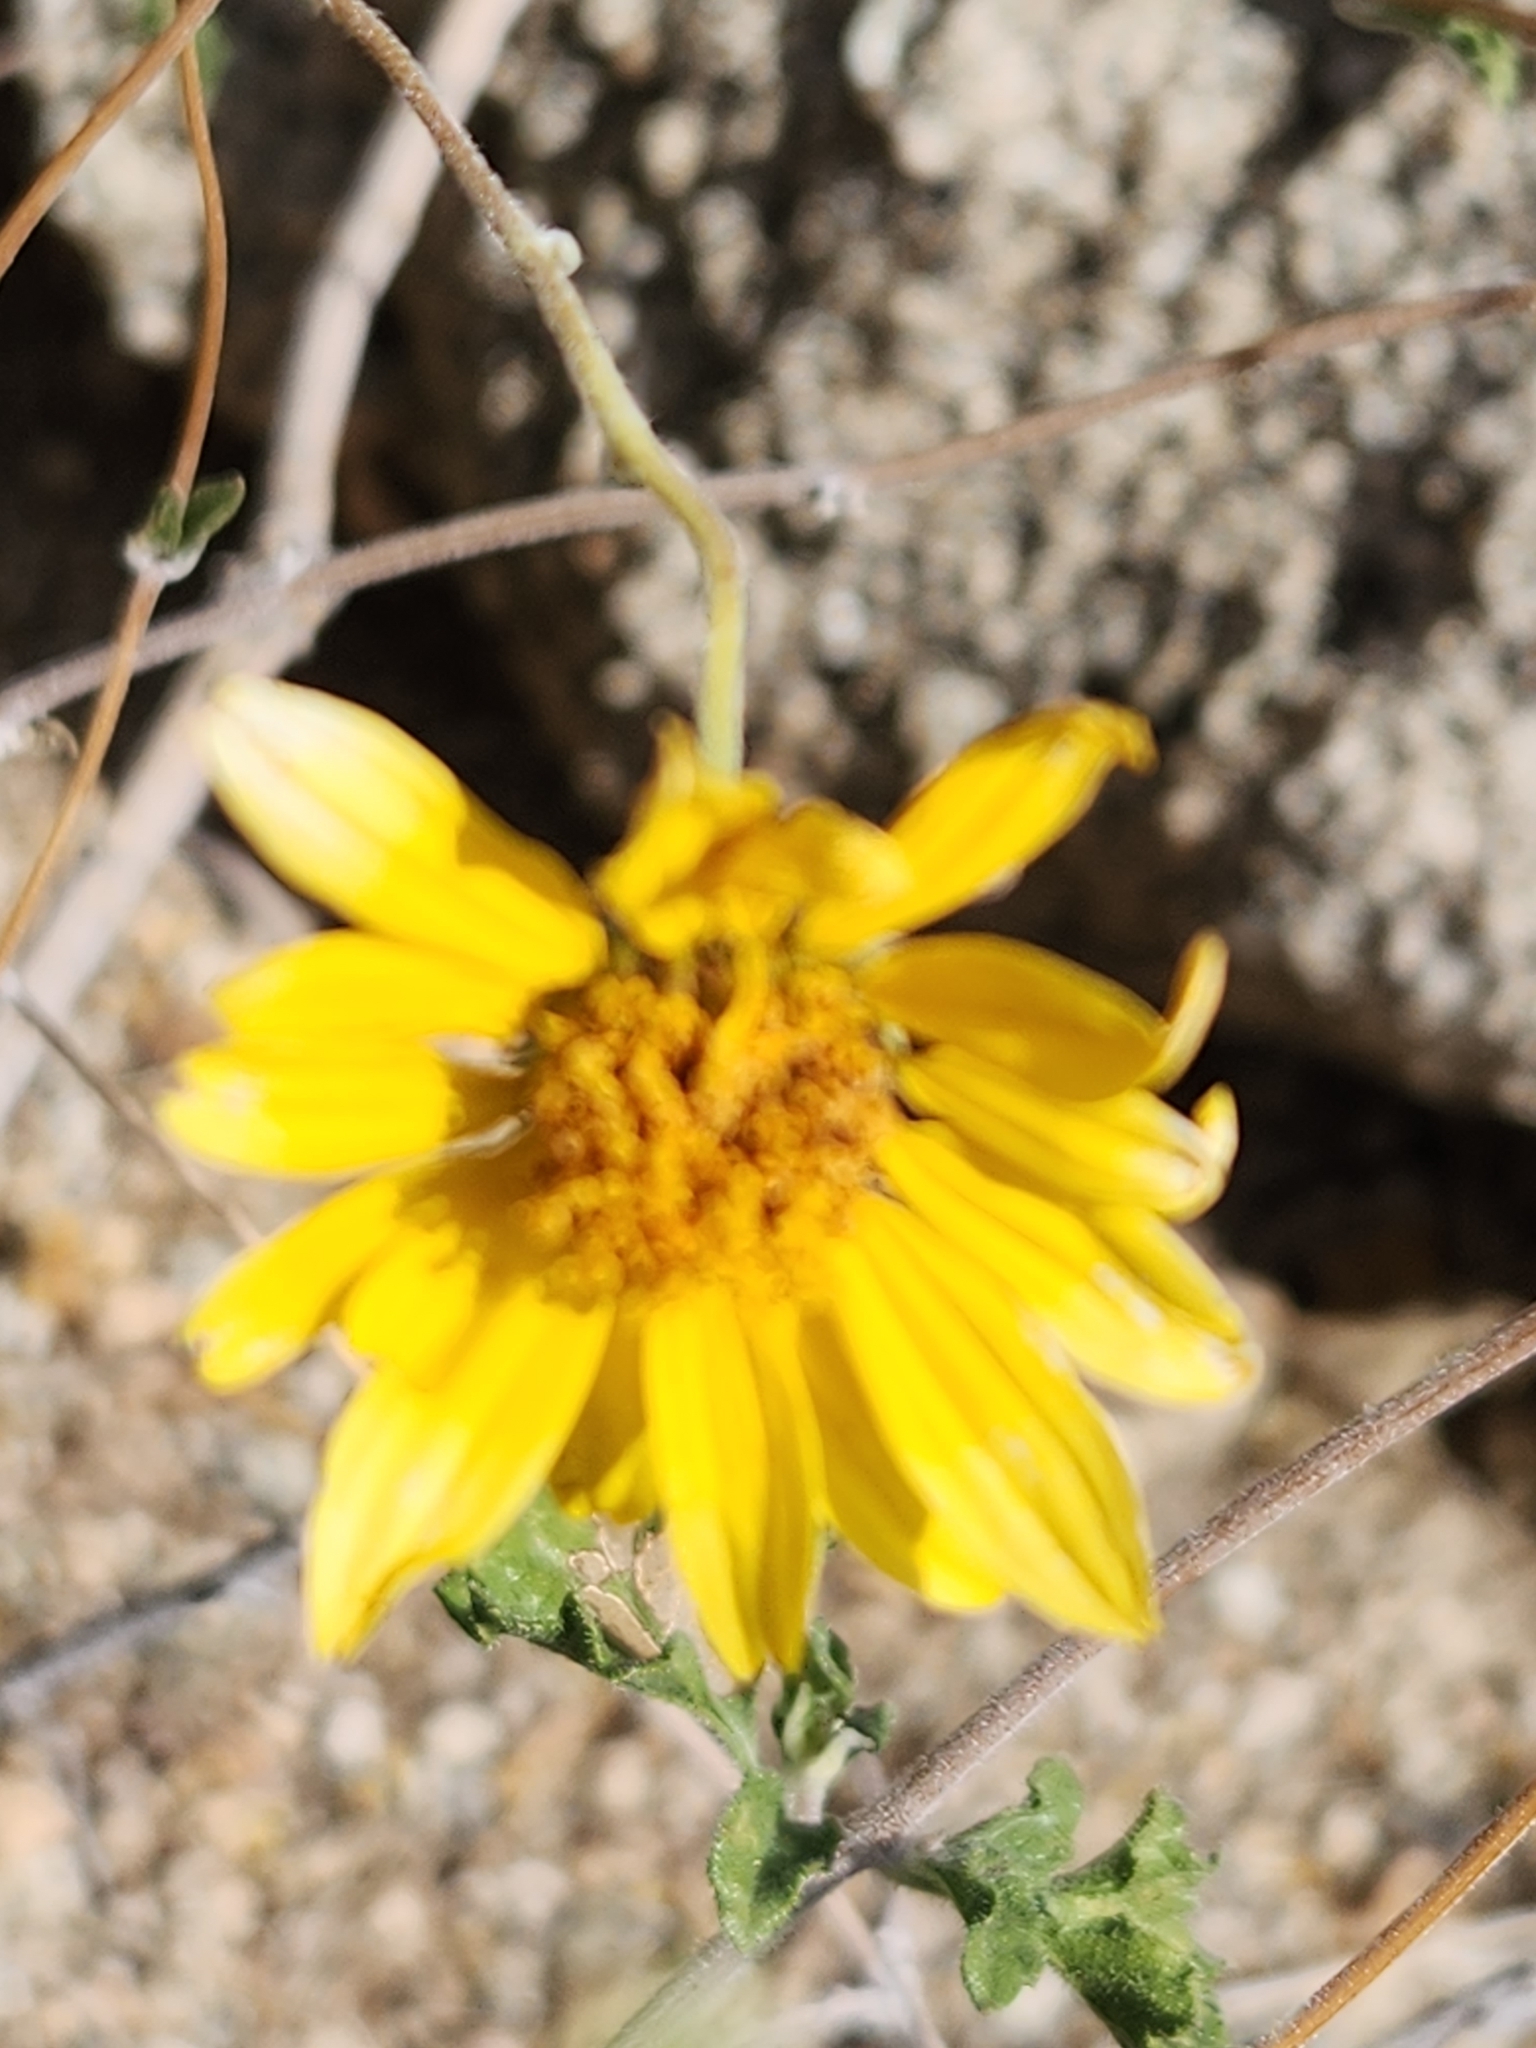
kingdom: Plantae
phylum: Tracheophyta
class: Magnoliopsida
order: Asterales
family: Asteraceae
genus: Bahiopsis
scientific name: Bahiopsis parishii
